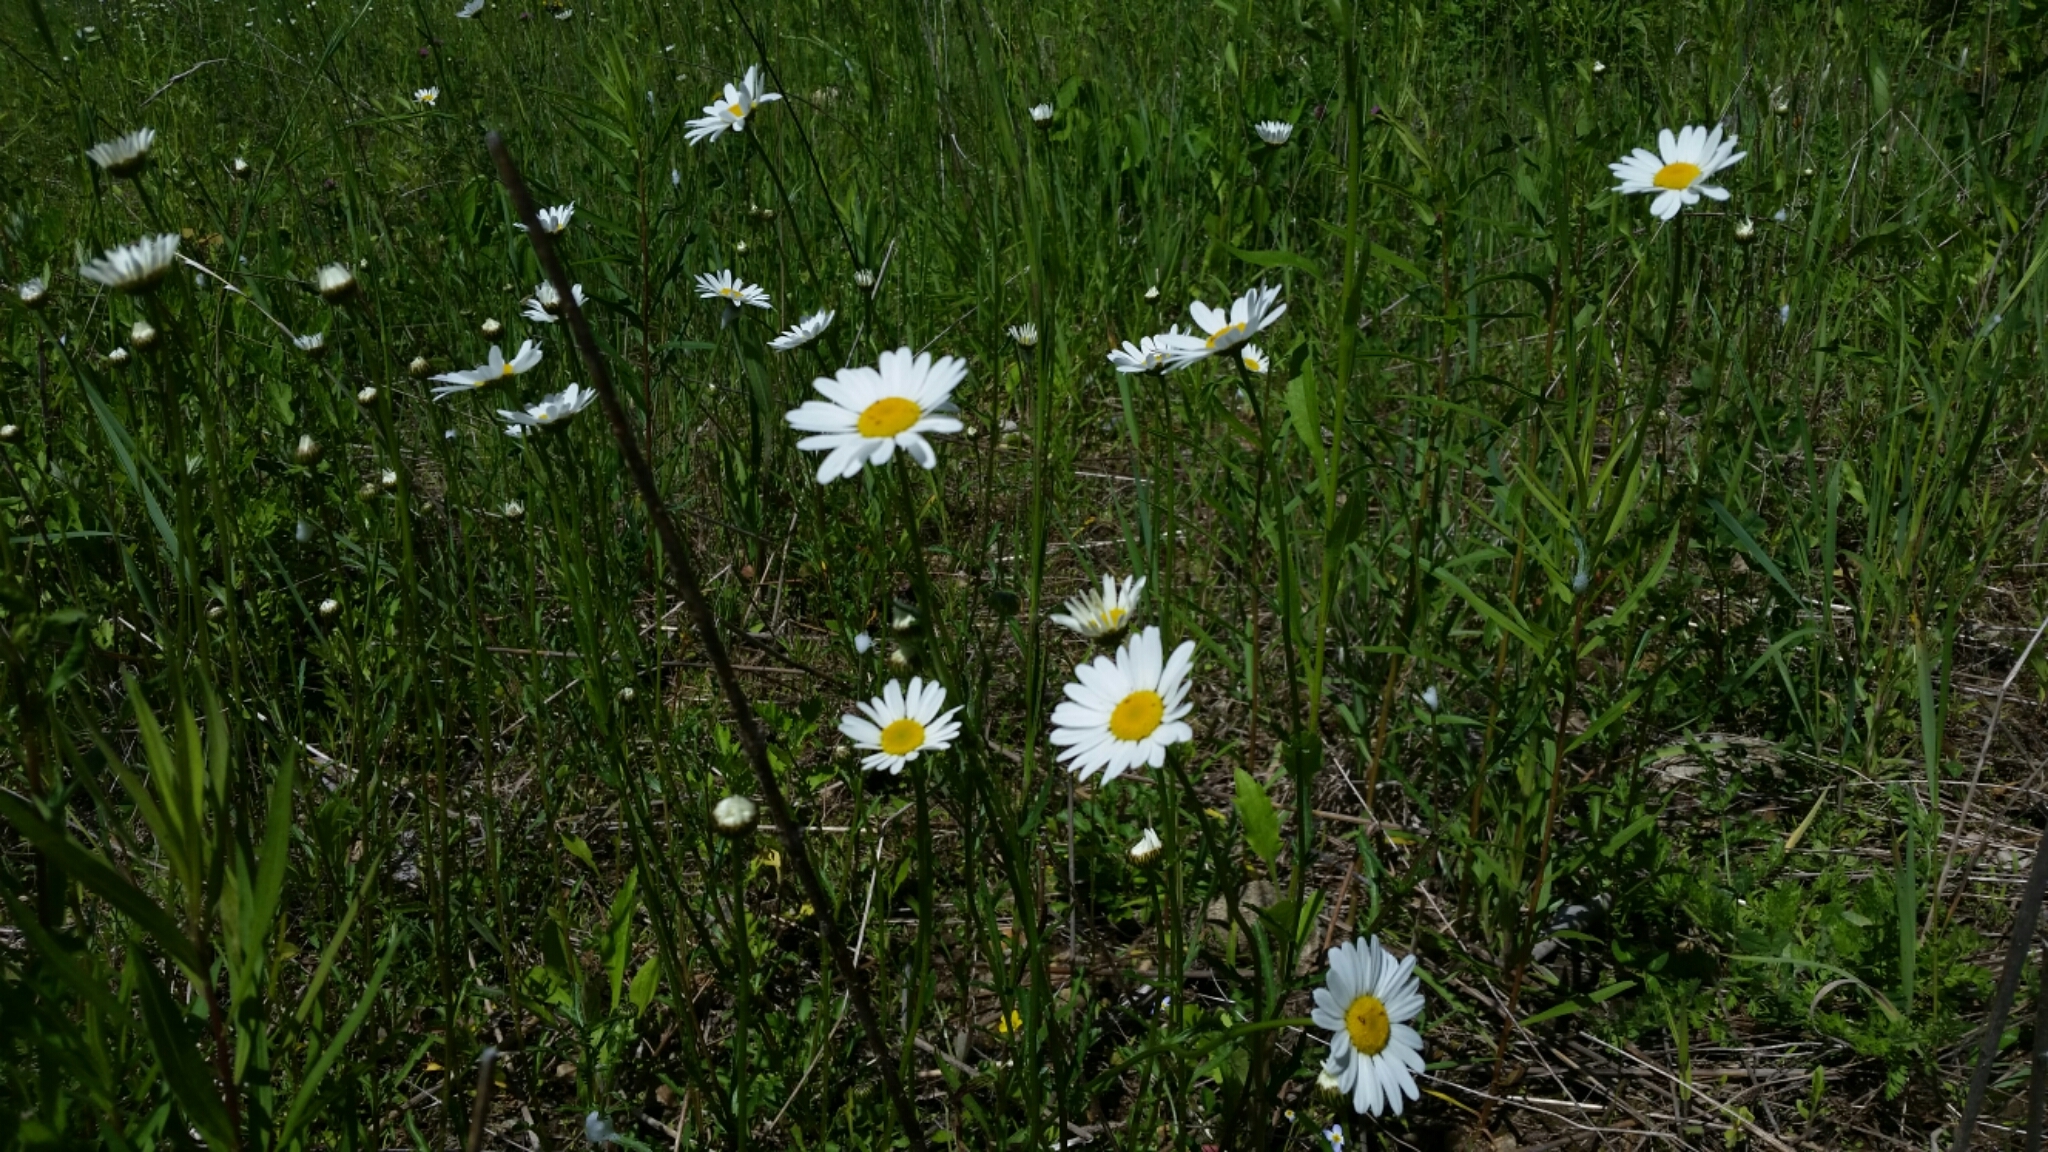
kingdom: Plantae
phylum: Tracheophyta
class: Magnoliopsida
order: Asterales
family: Asteraceae
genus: Leucanthemum
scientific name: Leucanthemum vulgare
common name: Oxeye daisy
